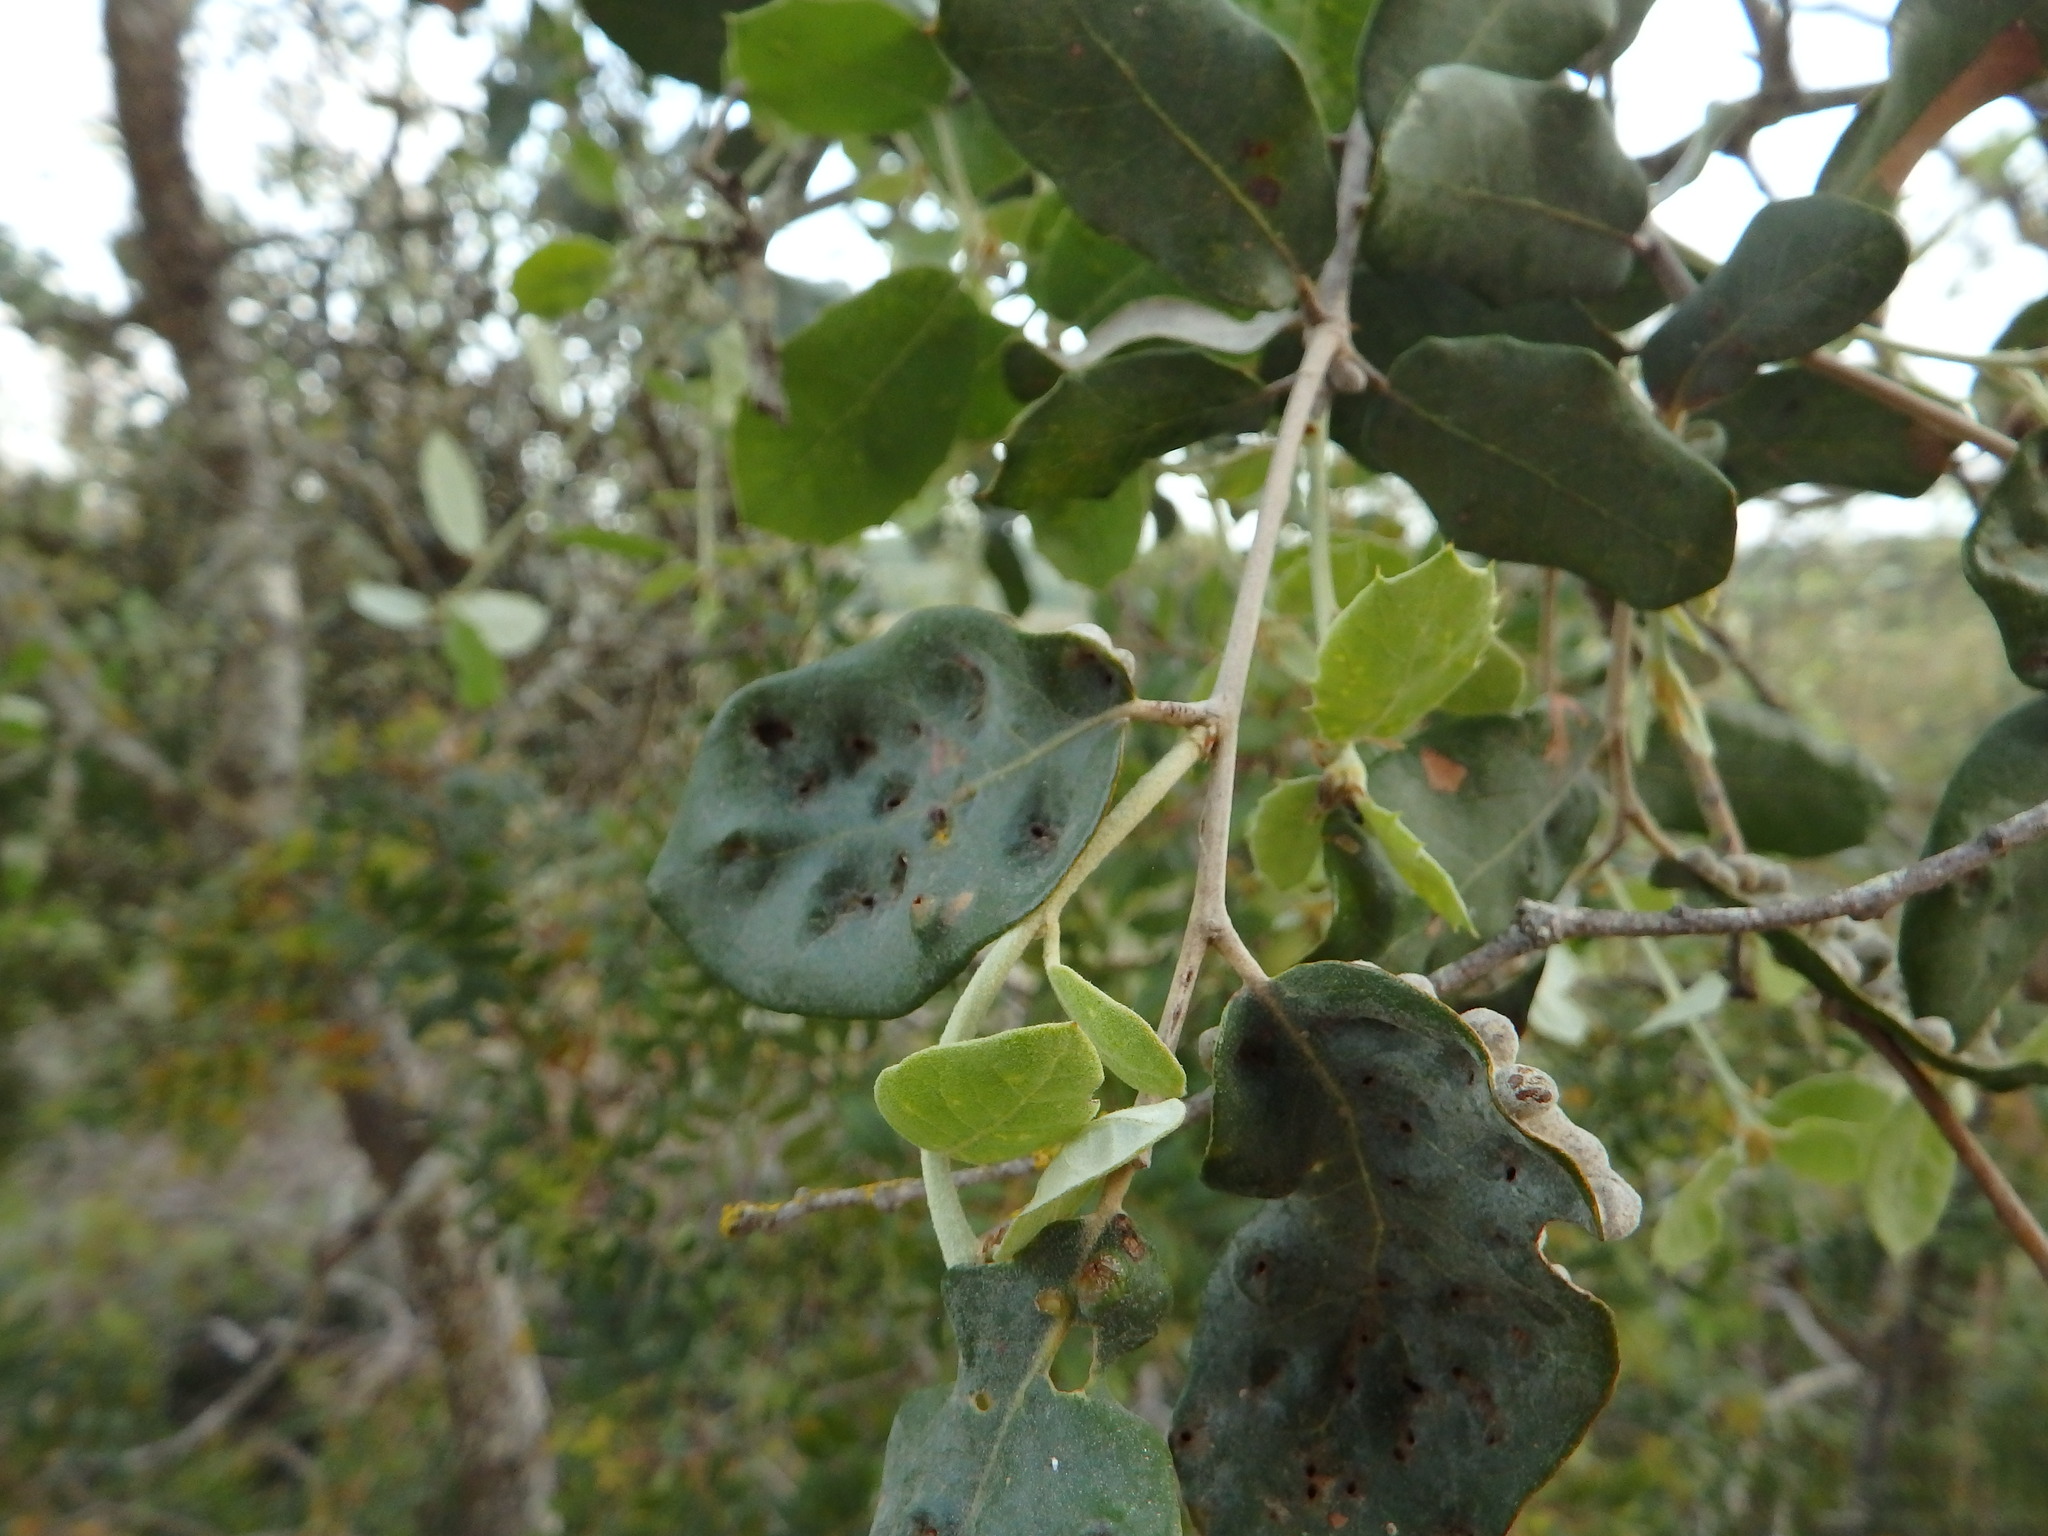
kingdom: Animalia
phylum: Arthropoda
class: Insecta
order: Diptera
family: Cecidomyiidae
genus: Dryomyia
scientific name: Dryomyia lichtensteinii
